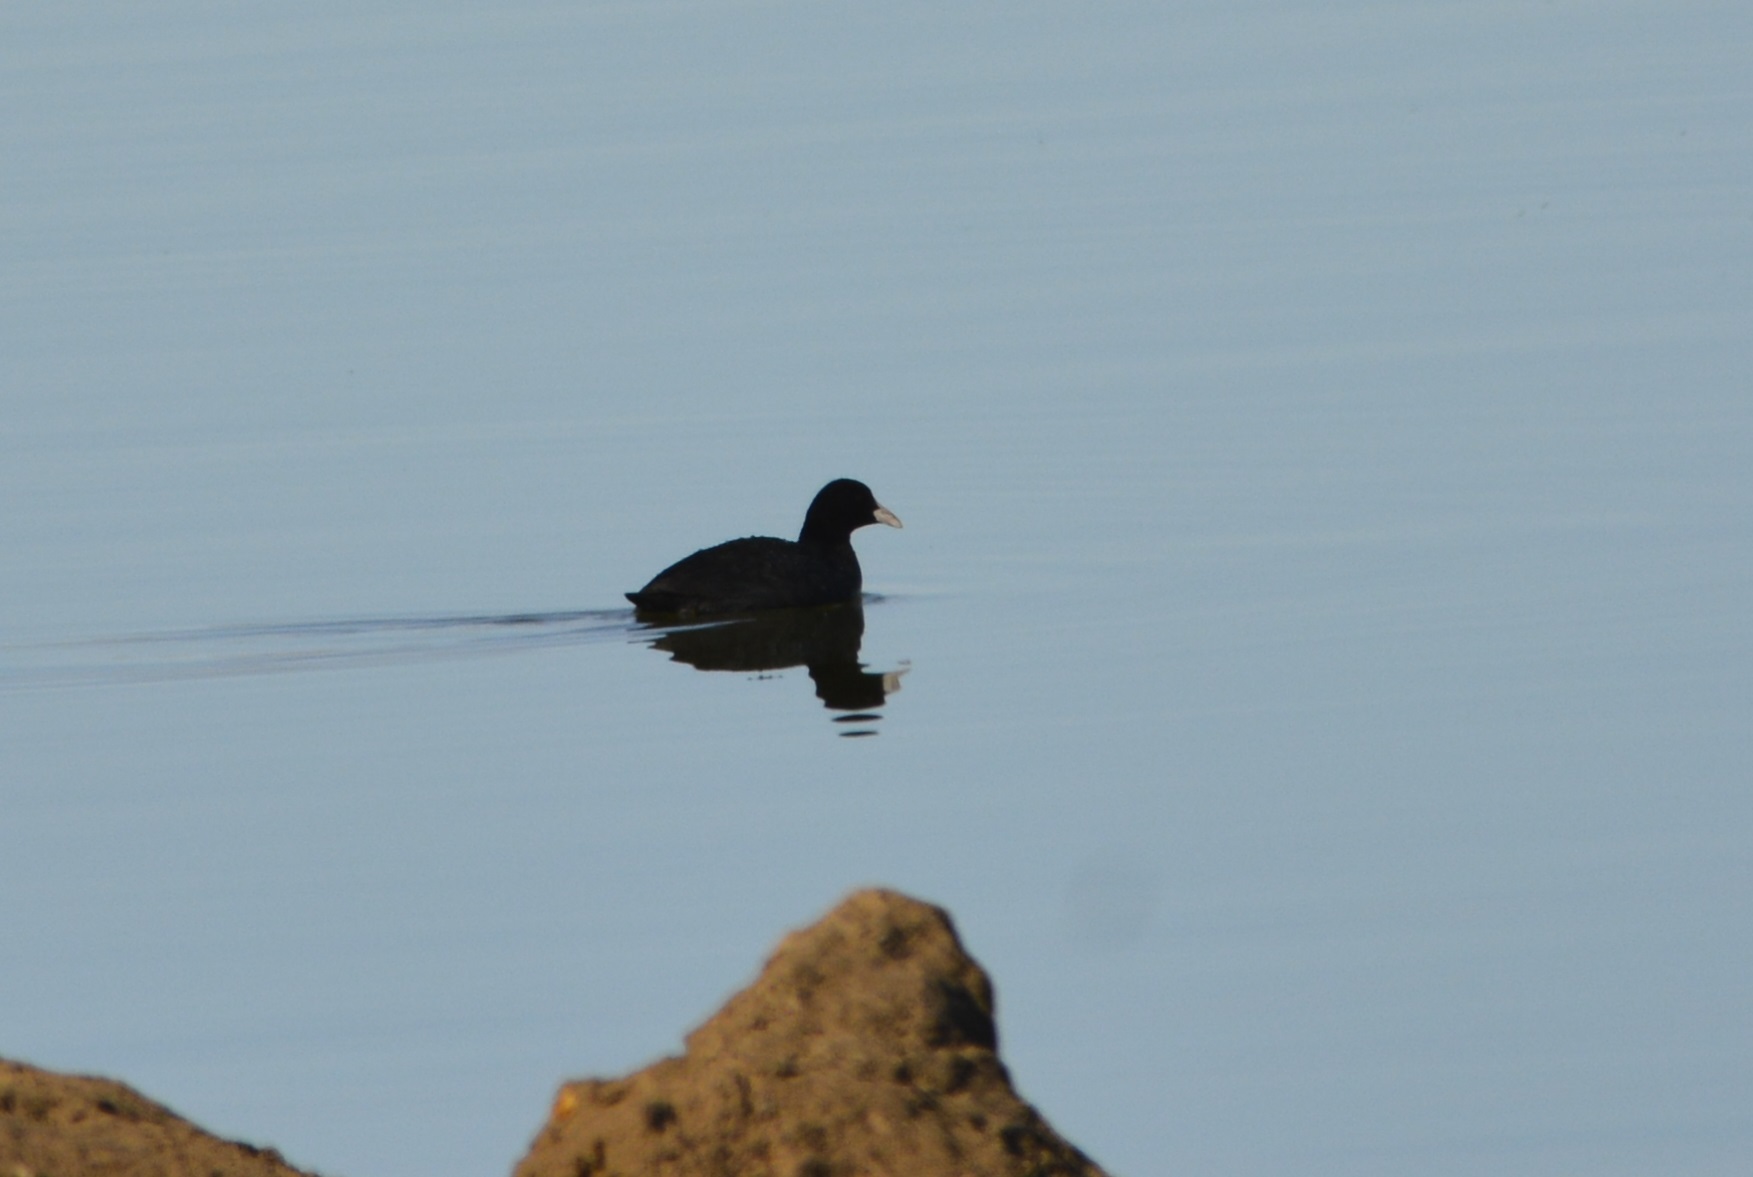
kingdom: Animalia
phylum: Chordata
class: Aves
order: Gruiformes
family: Rallidae
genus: Fulica
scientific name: Fulica atra
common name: Eurasian coot
